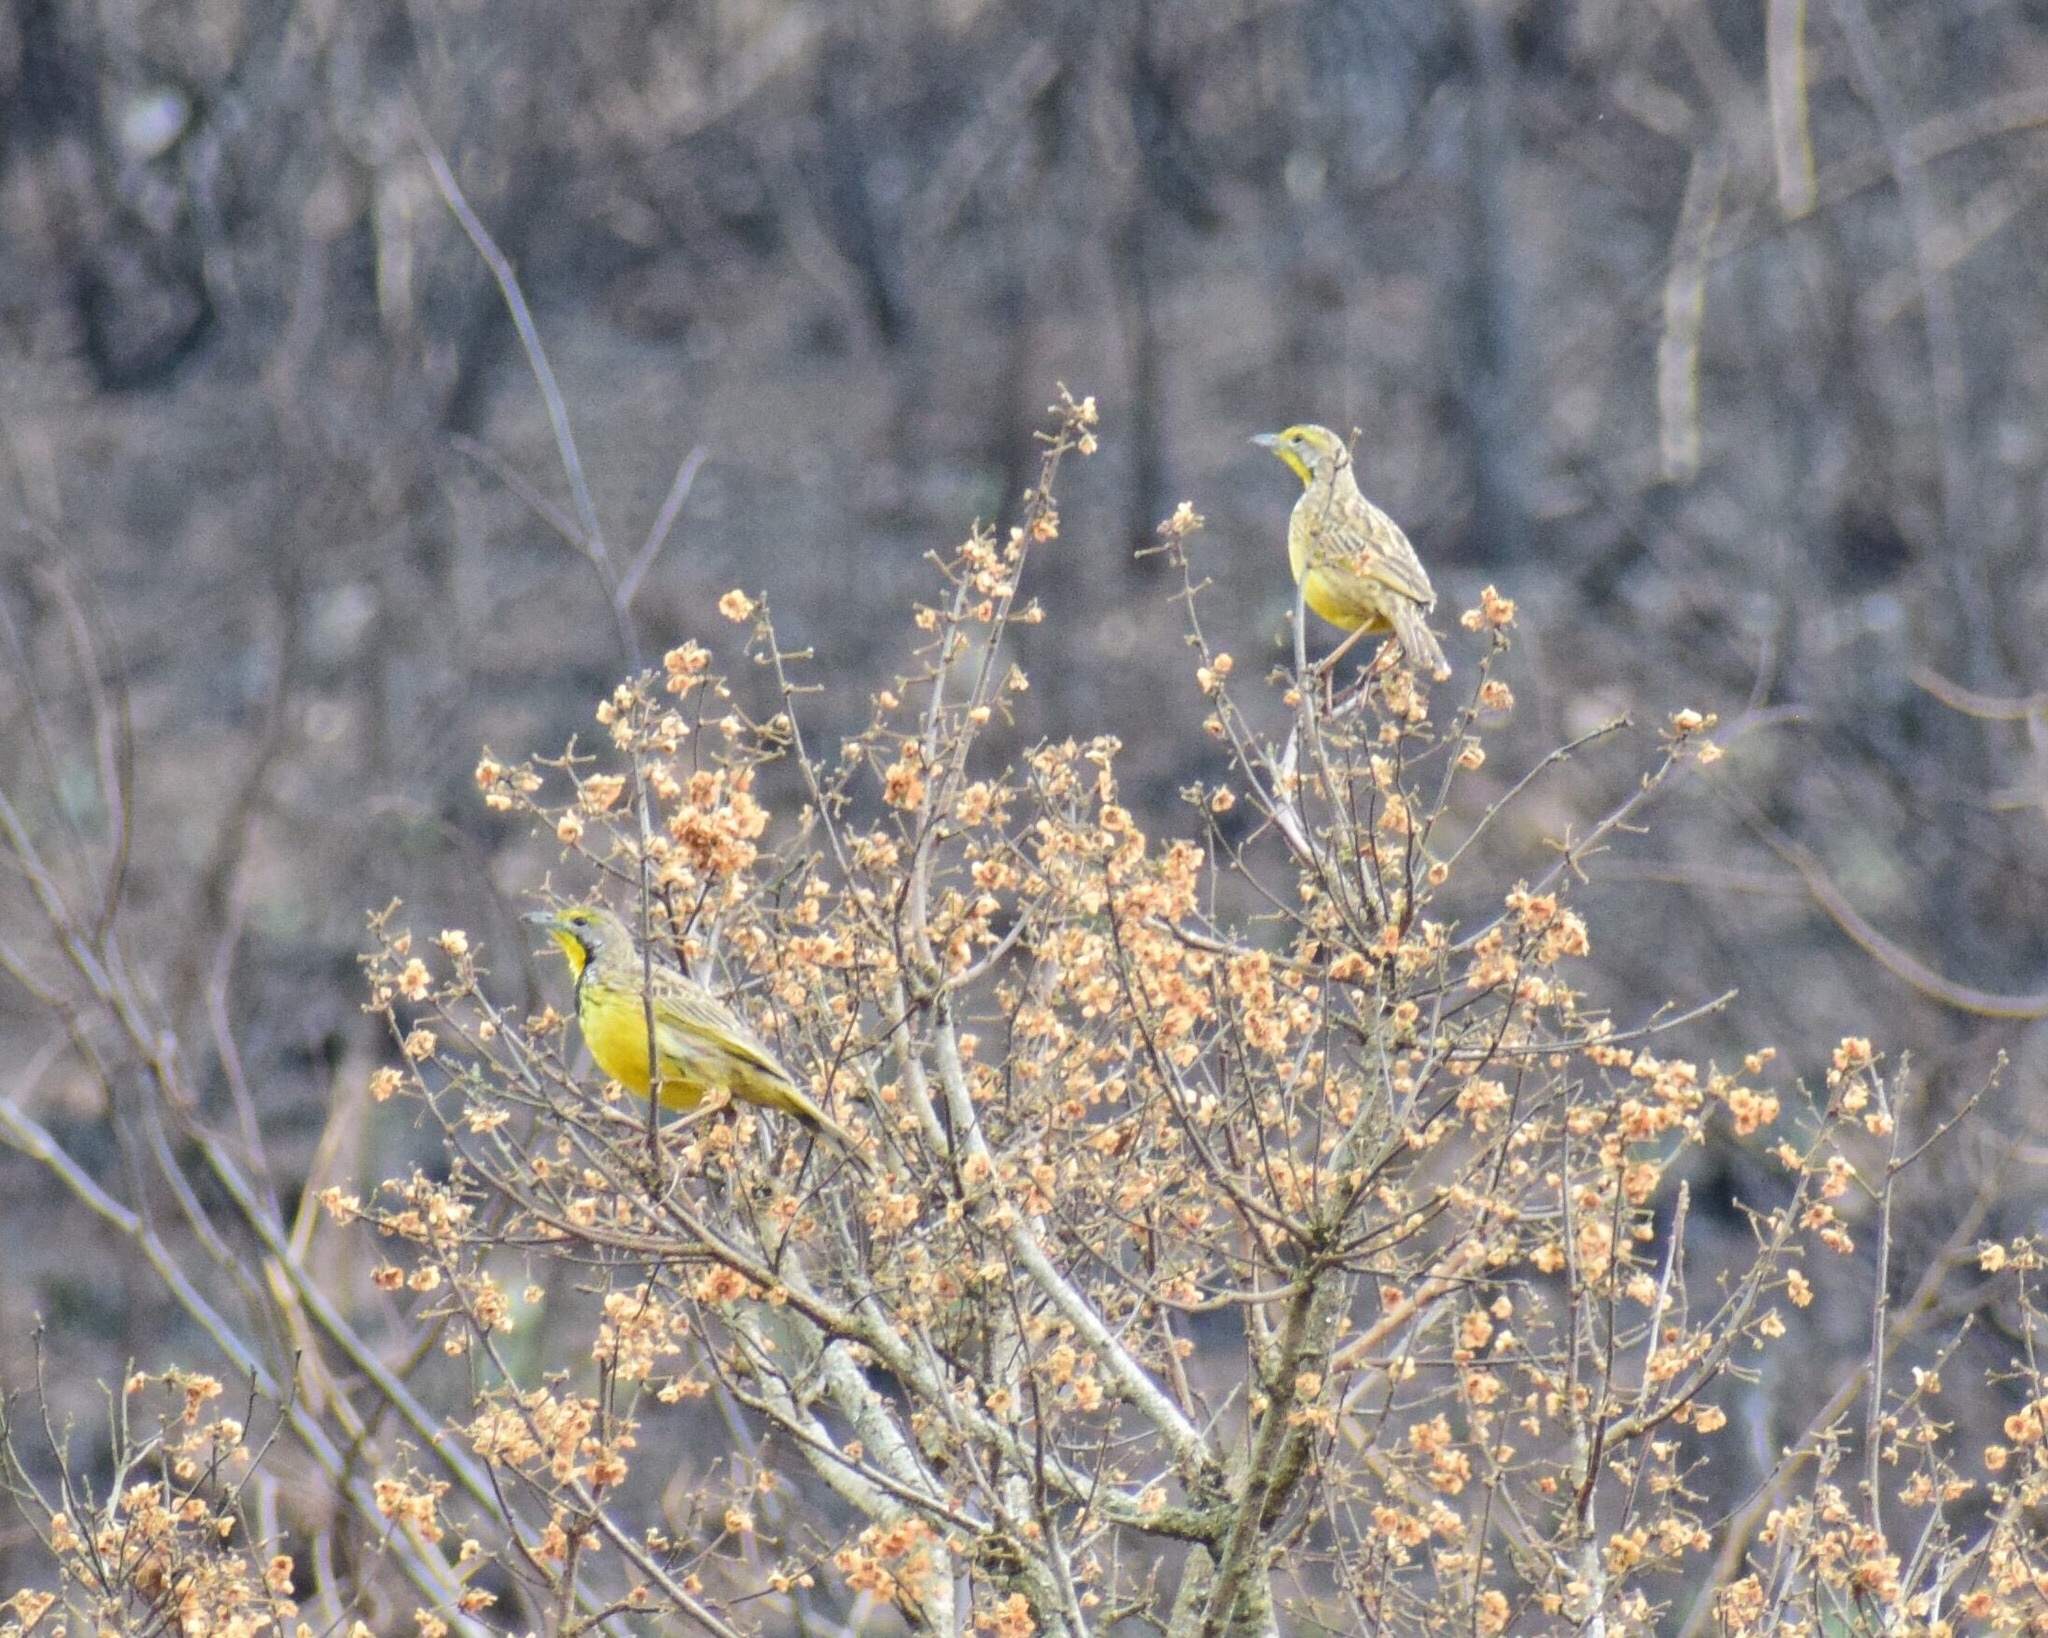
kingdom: Animalia
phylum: Chordata
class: Aves
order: Passeriformes
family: Motacillidae
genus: Macronyx
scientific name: Macronyx croceus
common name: Yellow-throated longclaw
